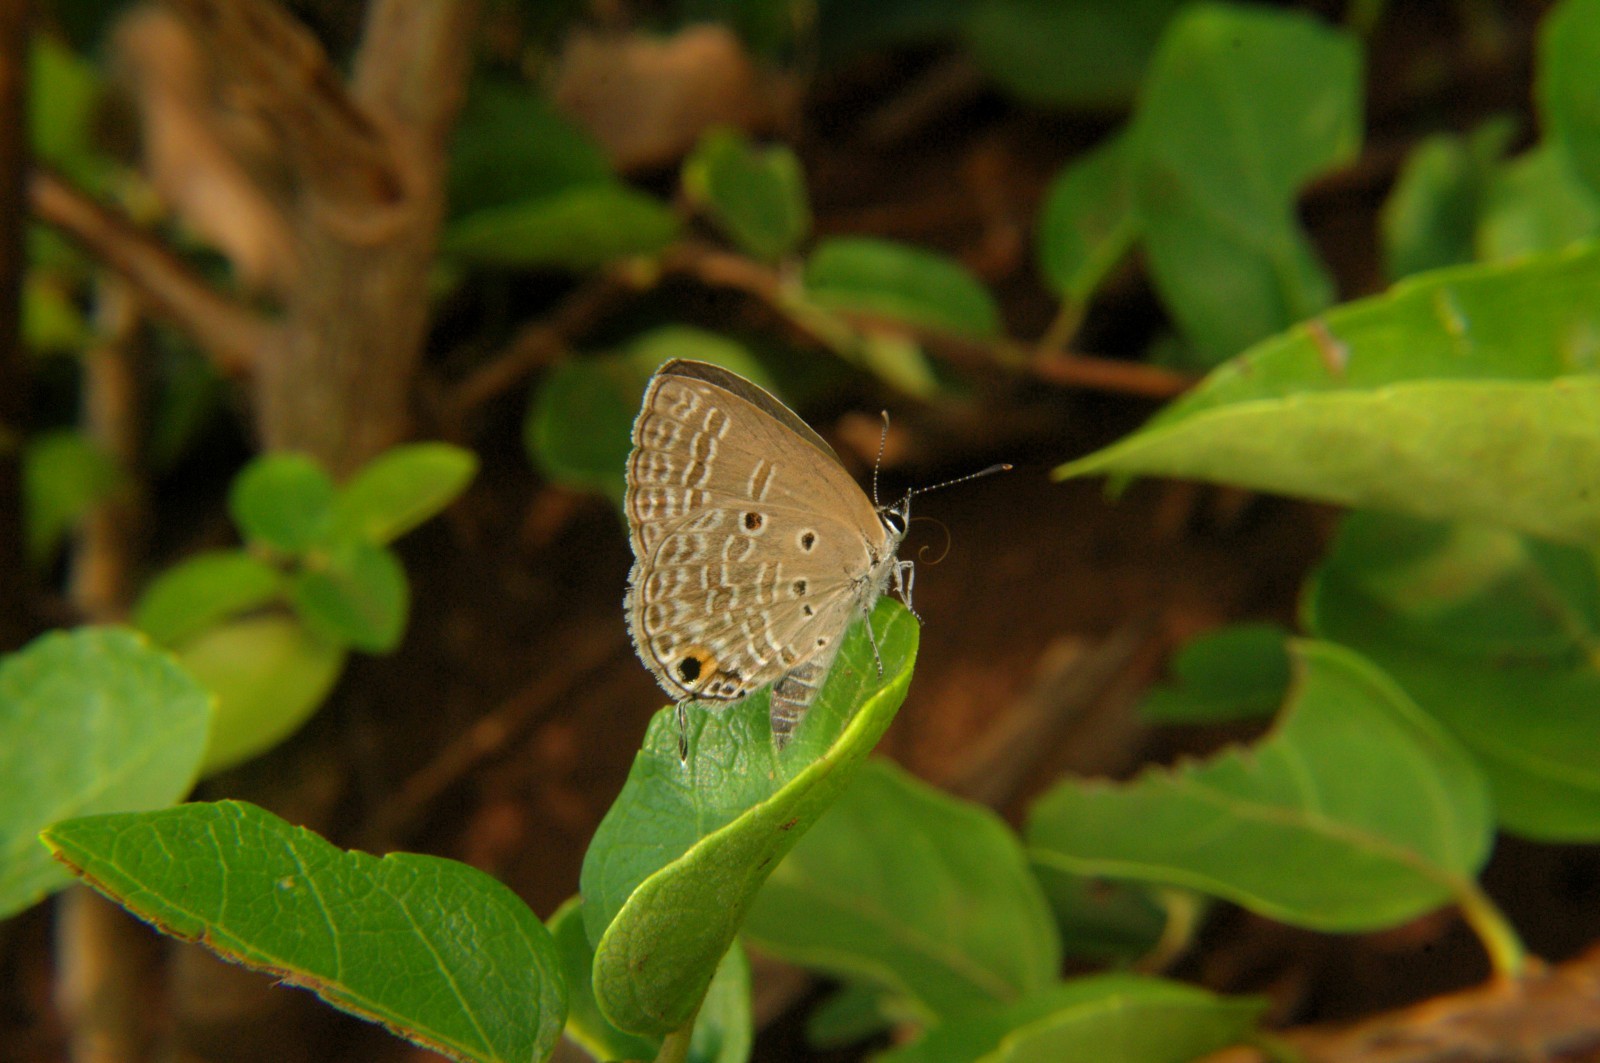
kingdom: Animalia
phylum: Arthropoda
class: Insecta
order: Lepidoptera
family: Lycaenidae
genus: Luthrodes
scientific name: Luthrodes pandava
